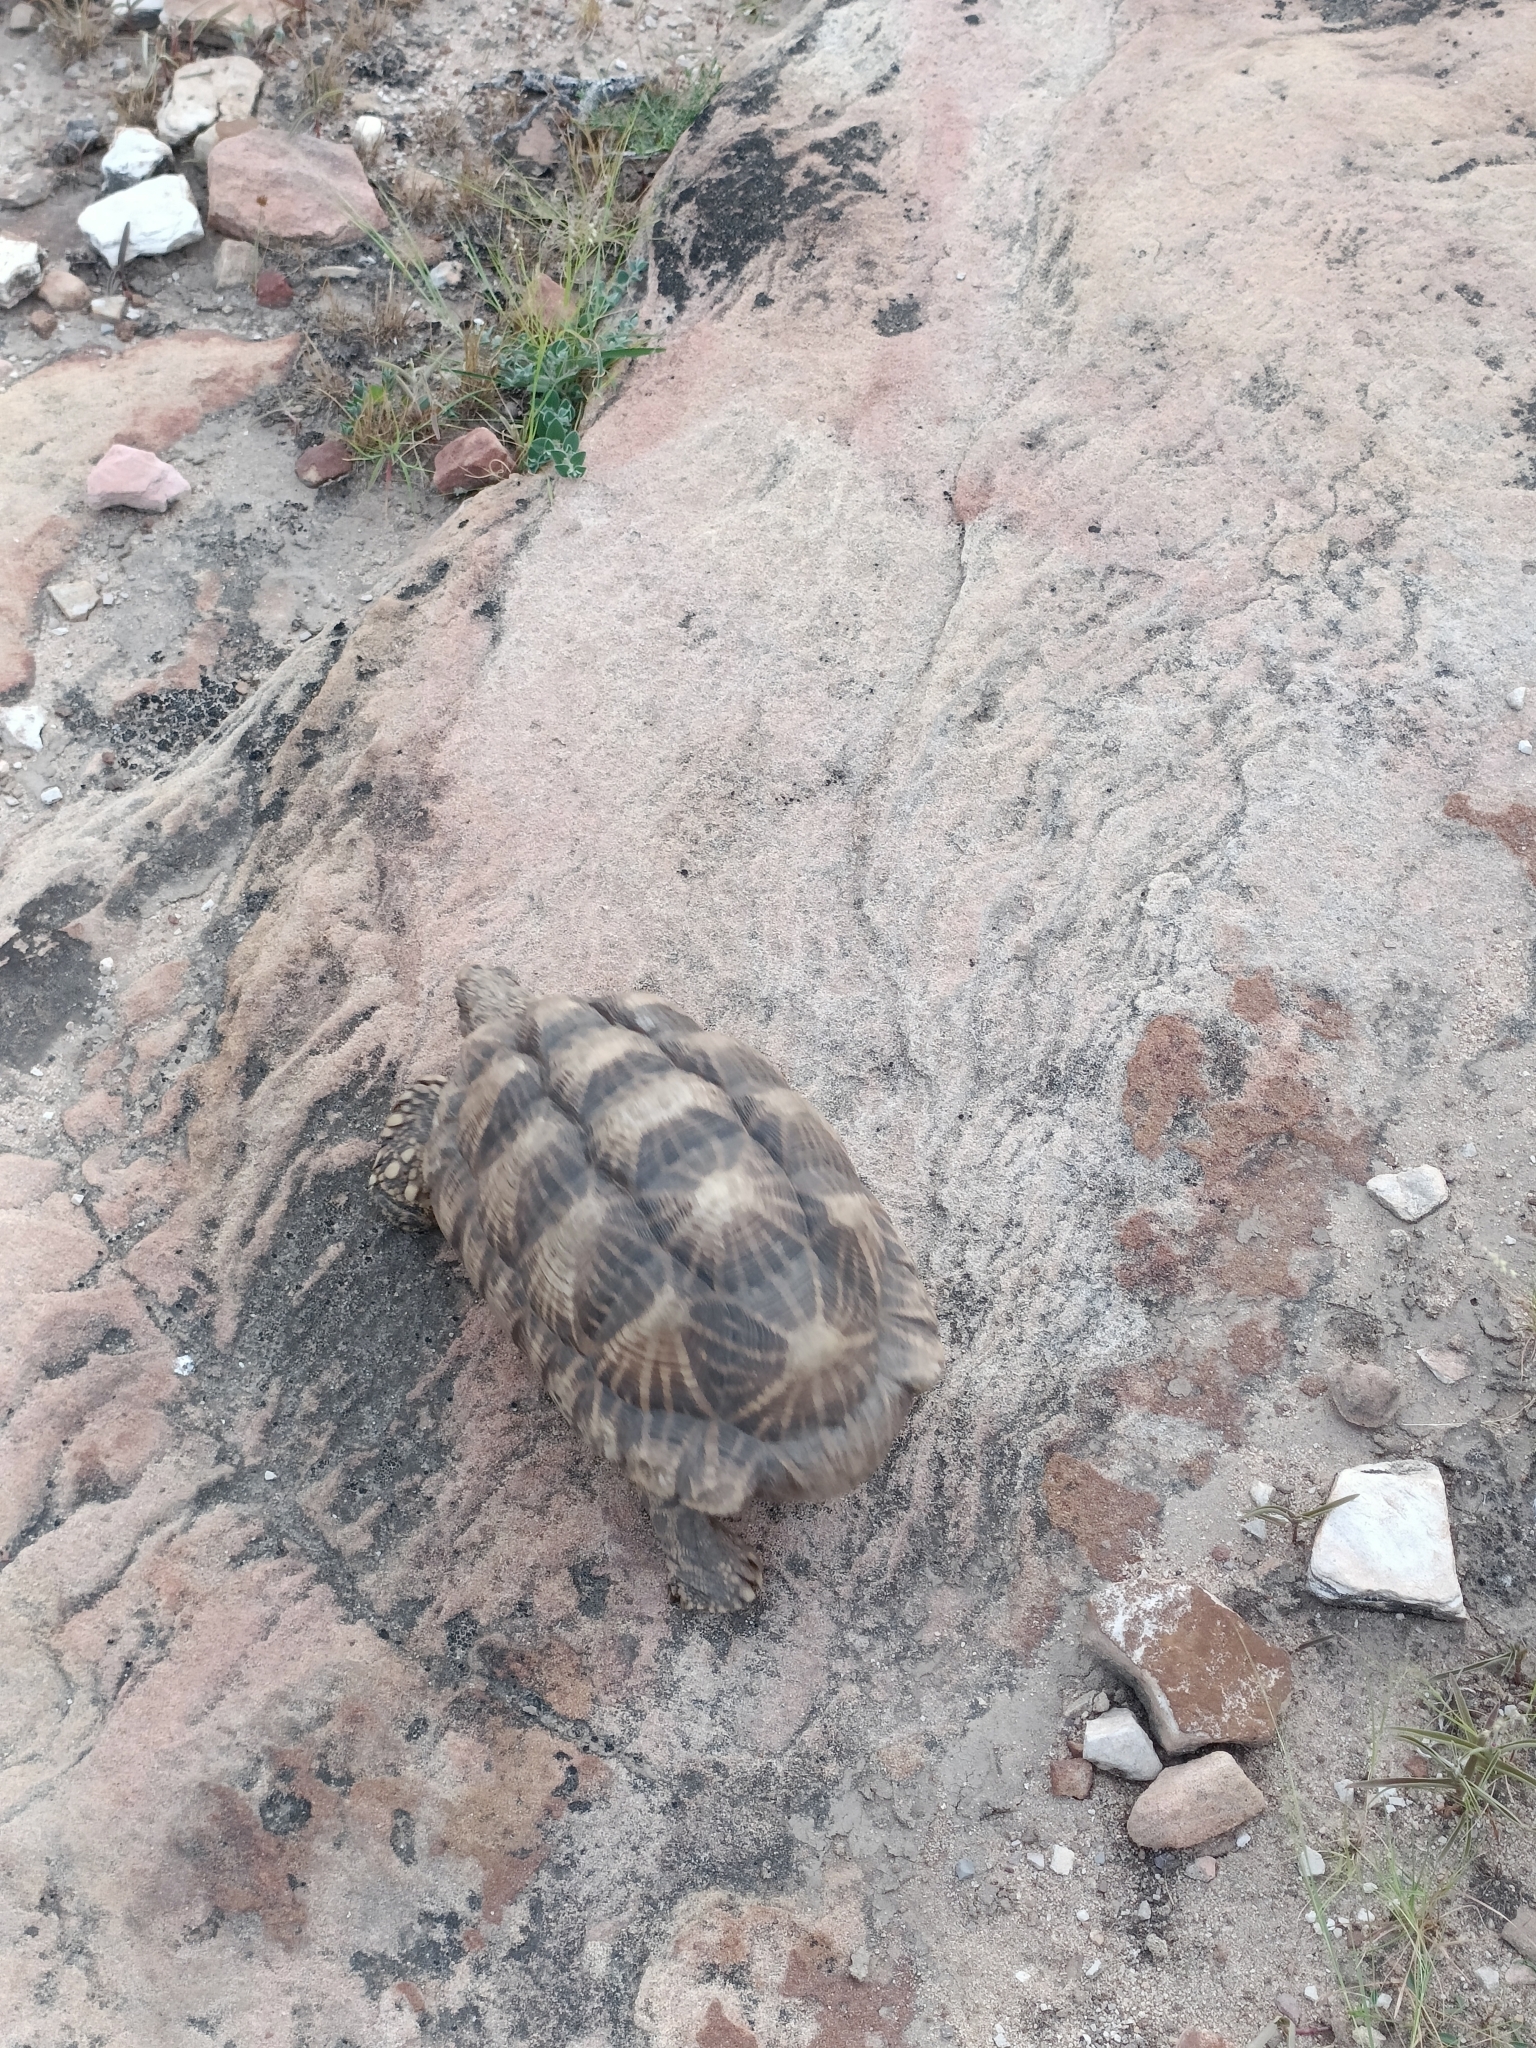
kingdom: Animalia
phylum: Chordata
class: Testudines
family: Testudinidae
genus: Geochelone
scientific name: Geochelone elegans
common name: Indian star tortoise
